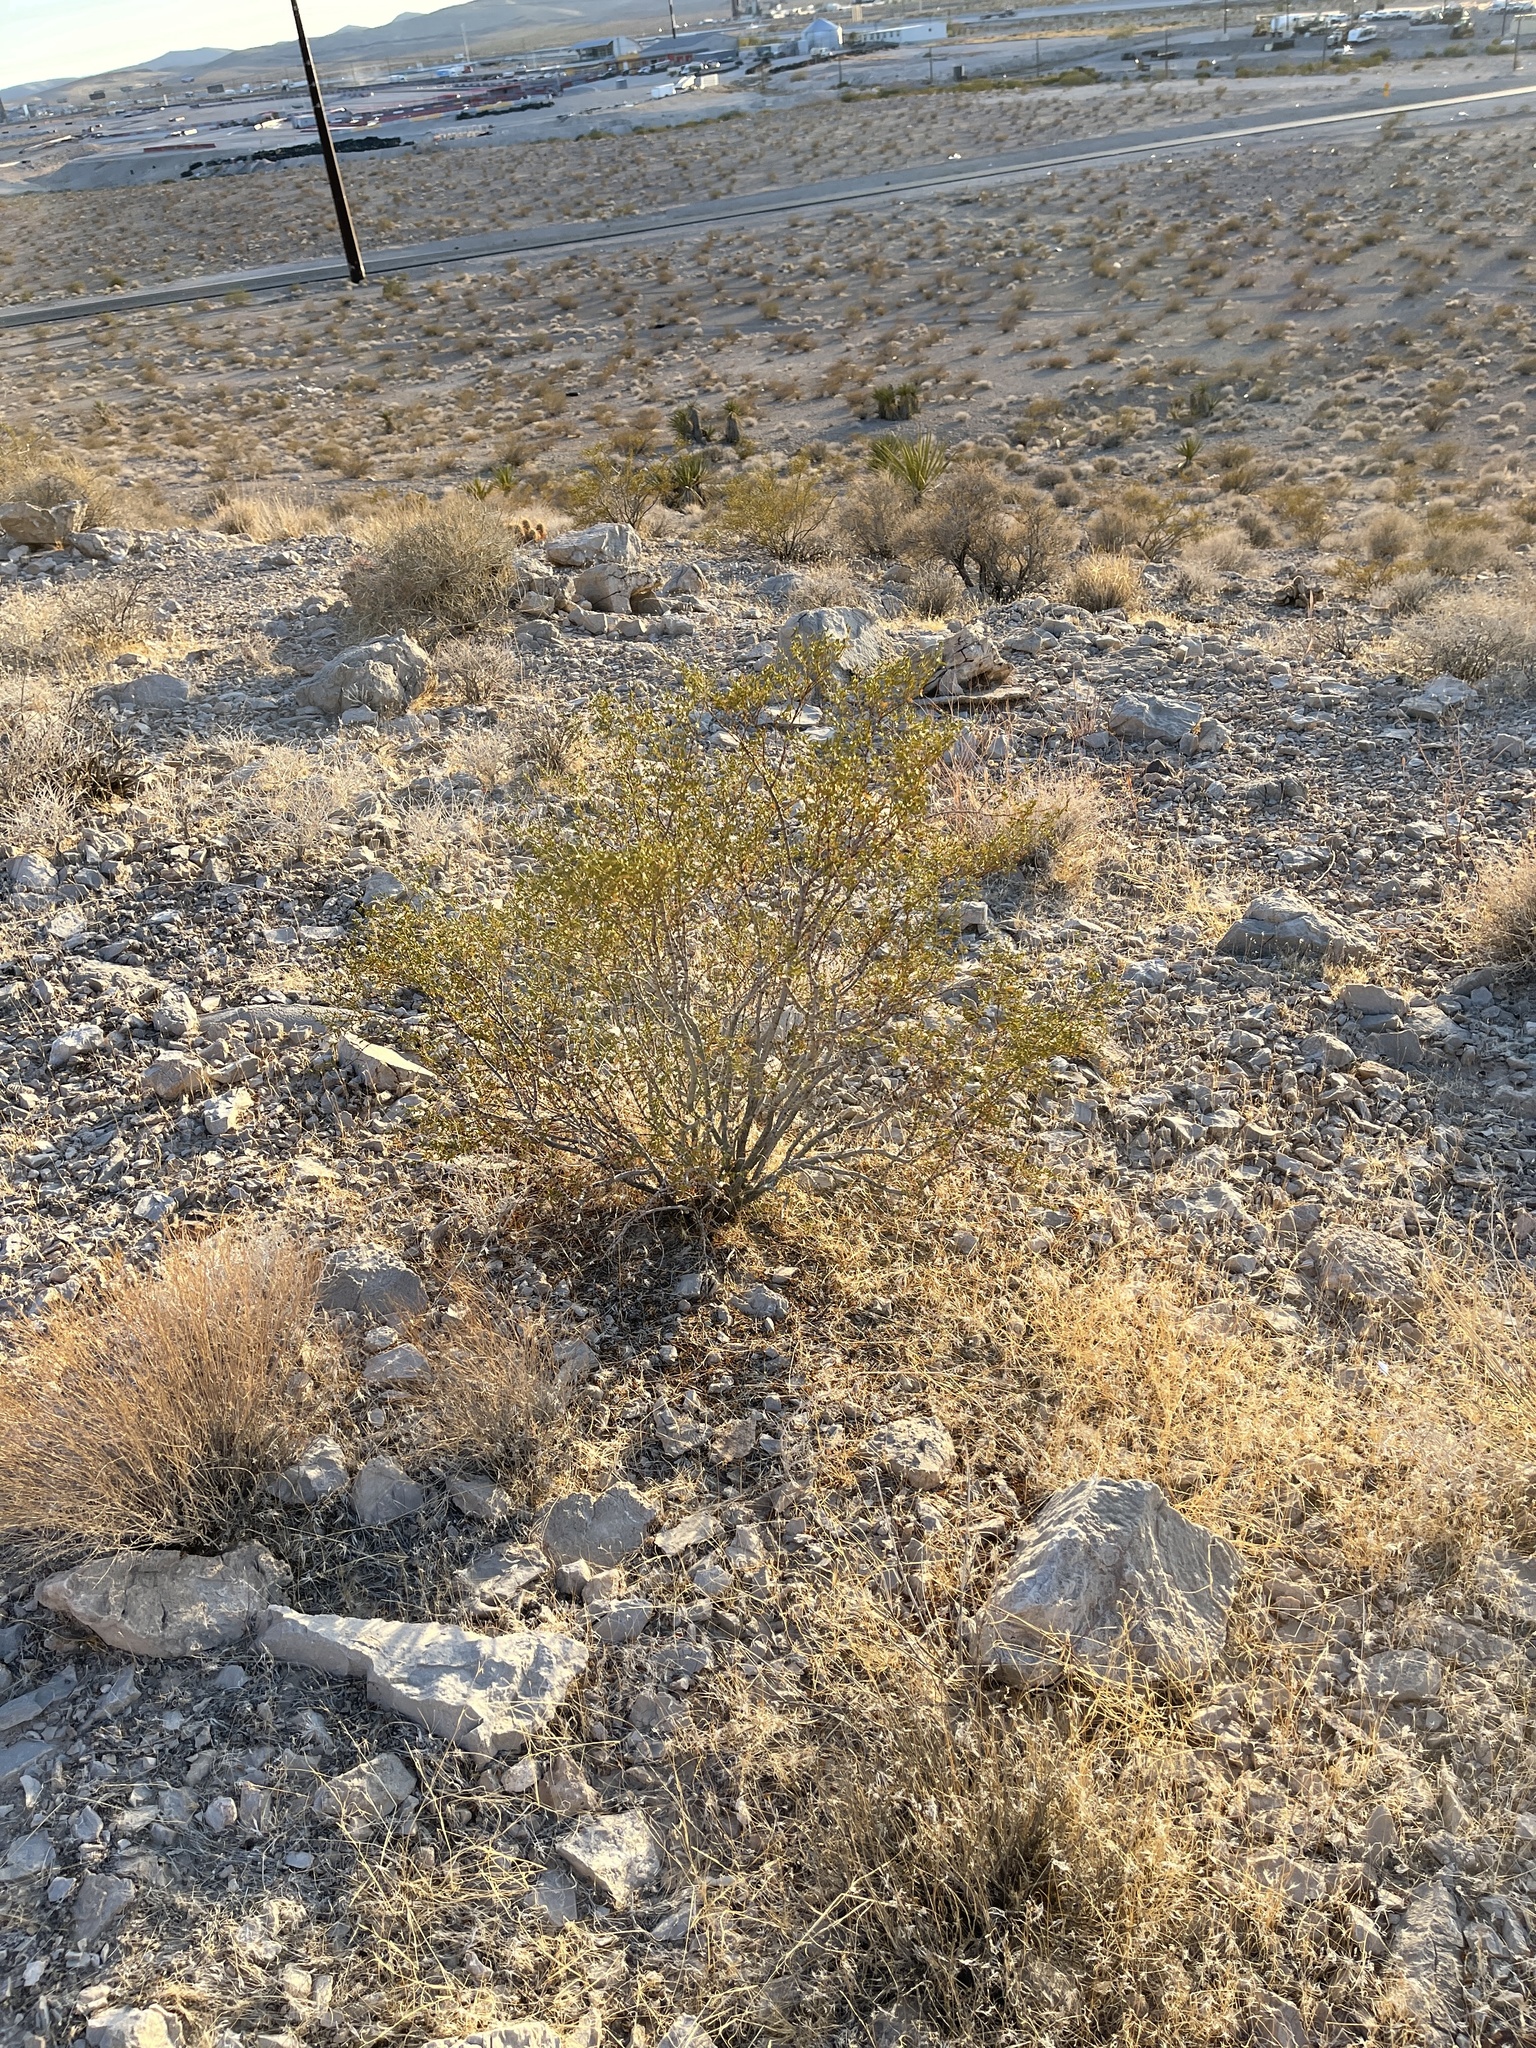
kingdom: Plantae
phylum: Tracheophyta
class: Magnoliopsida
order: Zygophyllales
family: Zygophyllaceae
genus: Larrea
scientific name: Larrea tridentata
